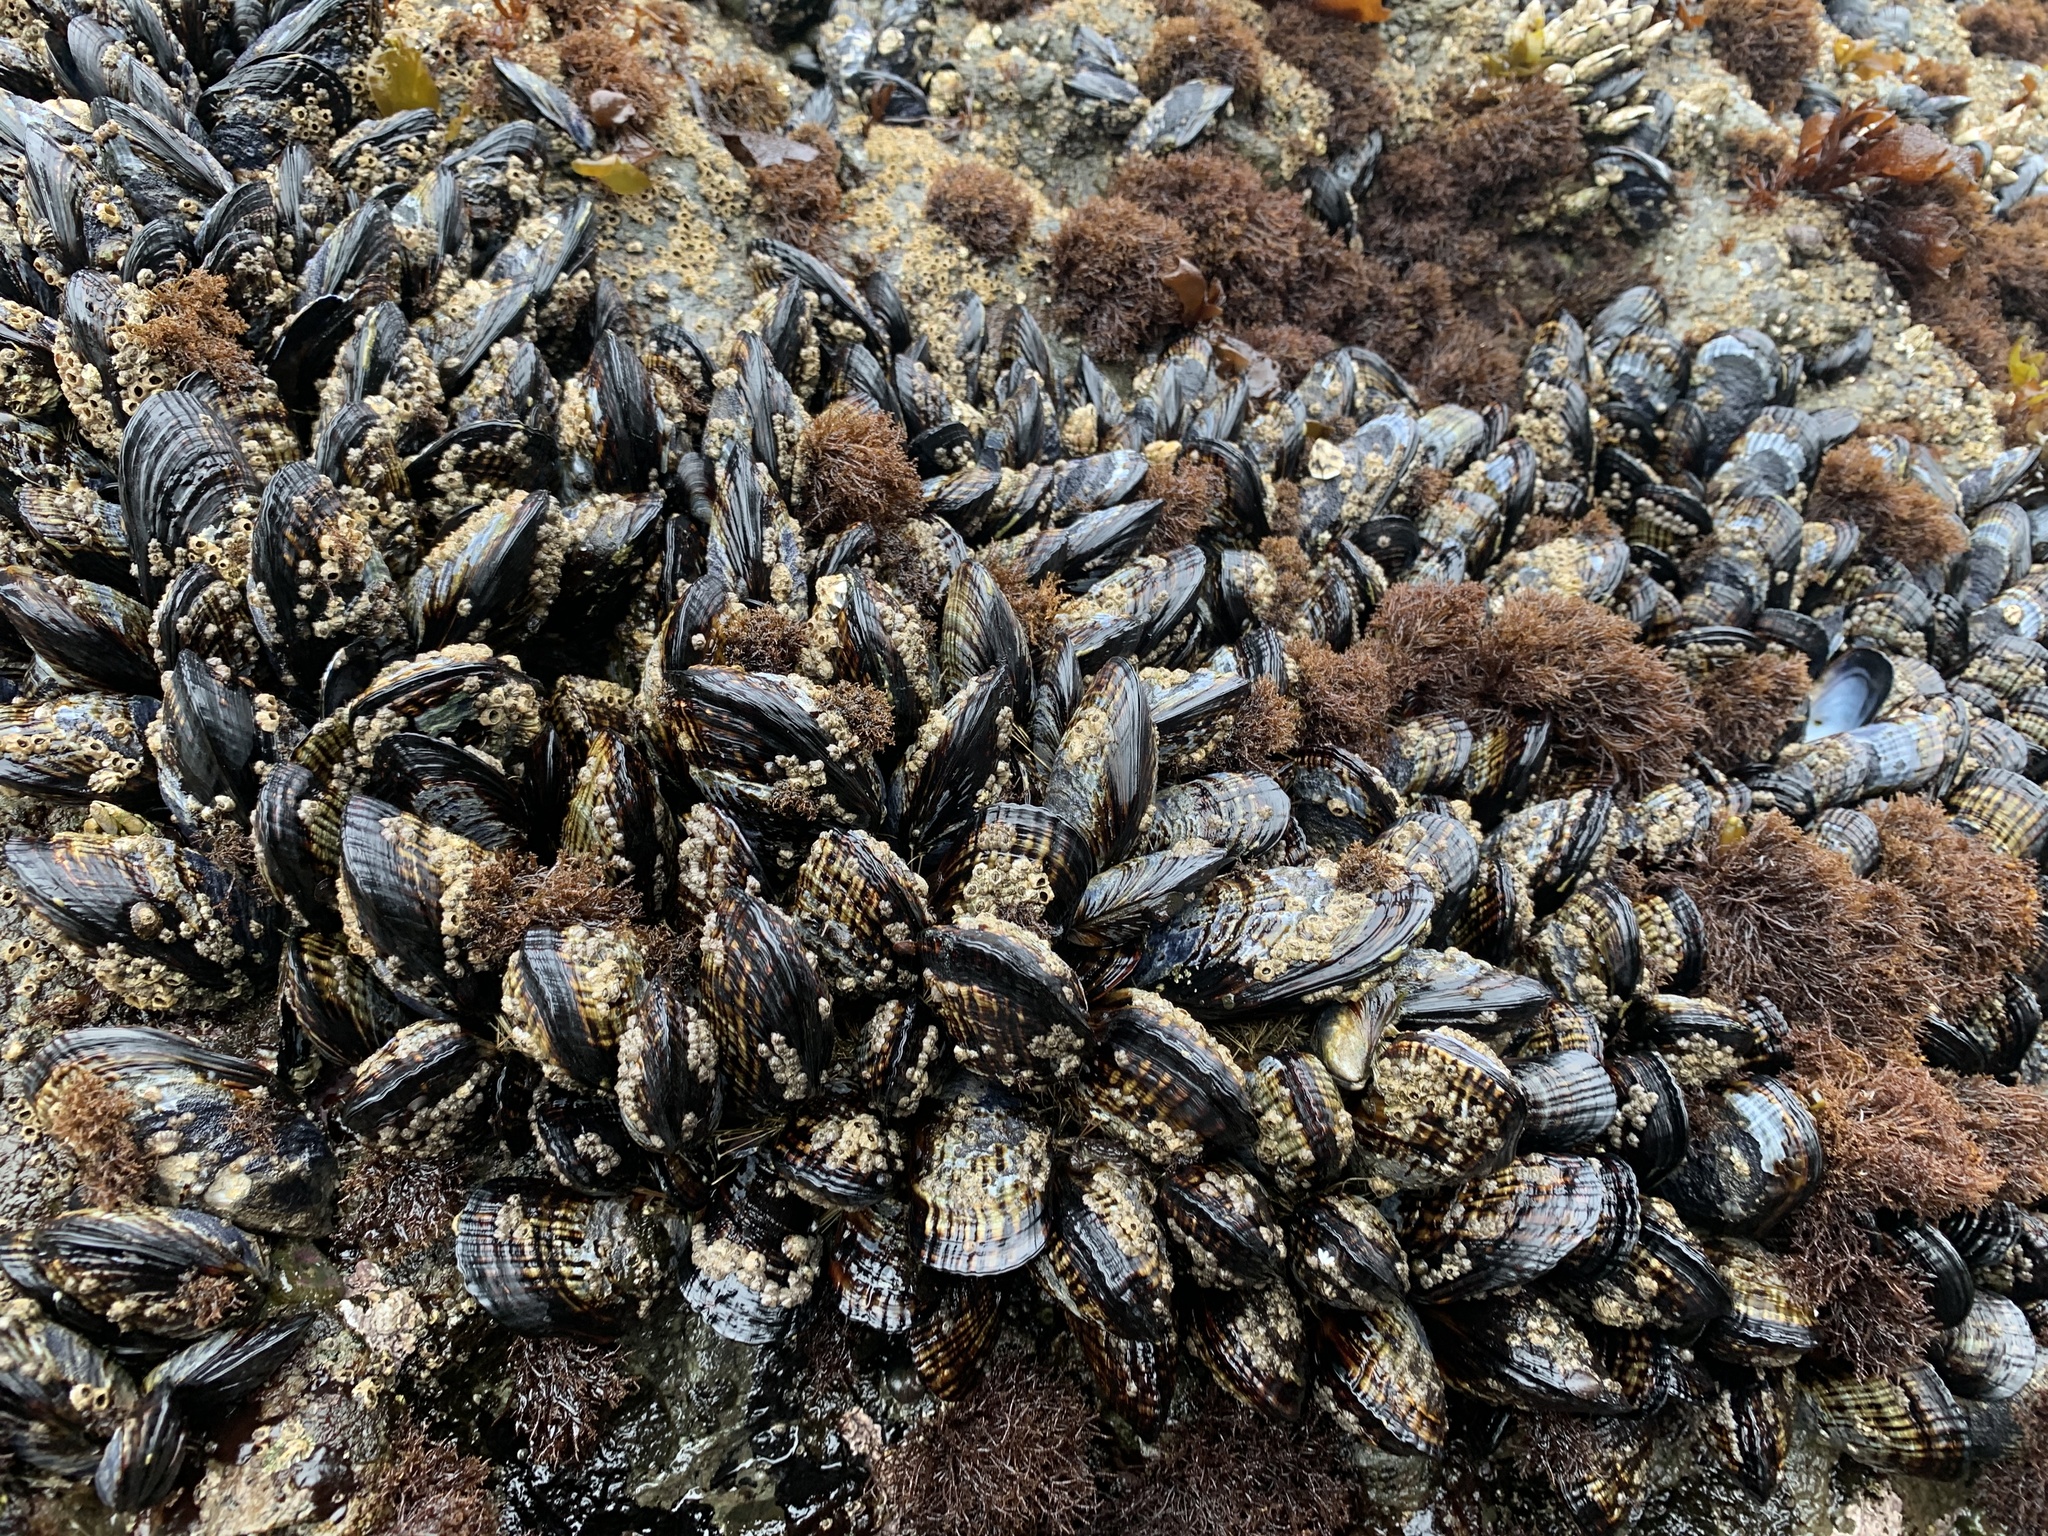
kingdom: Animalia
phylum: Mollusca
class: Bivalvia
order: Mytilida
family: Mytilidae
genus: Mytilus
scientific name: Mytilus californianus
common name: California mussel
